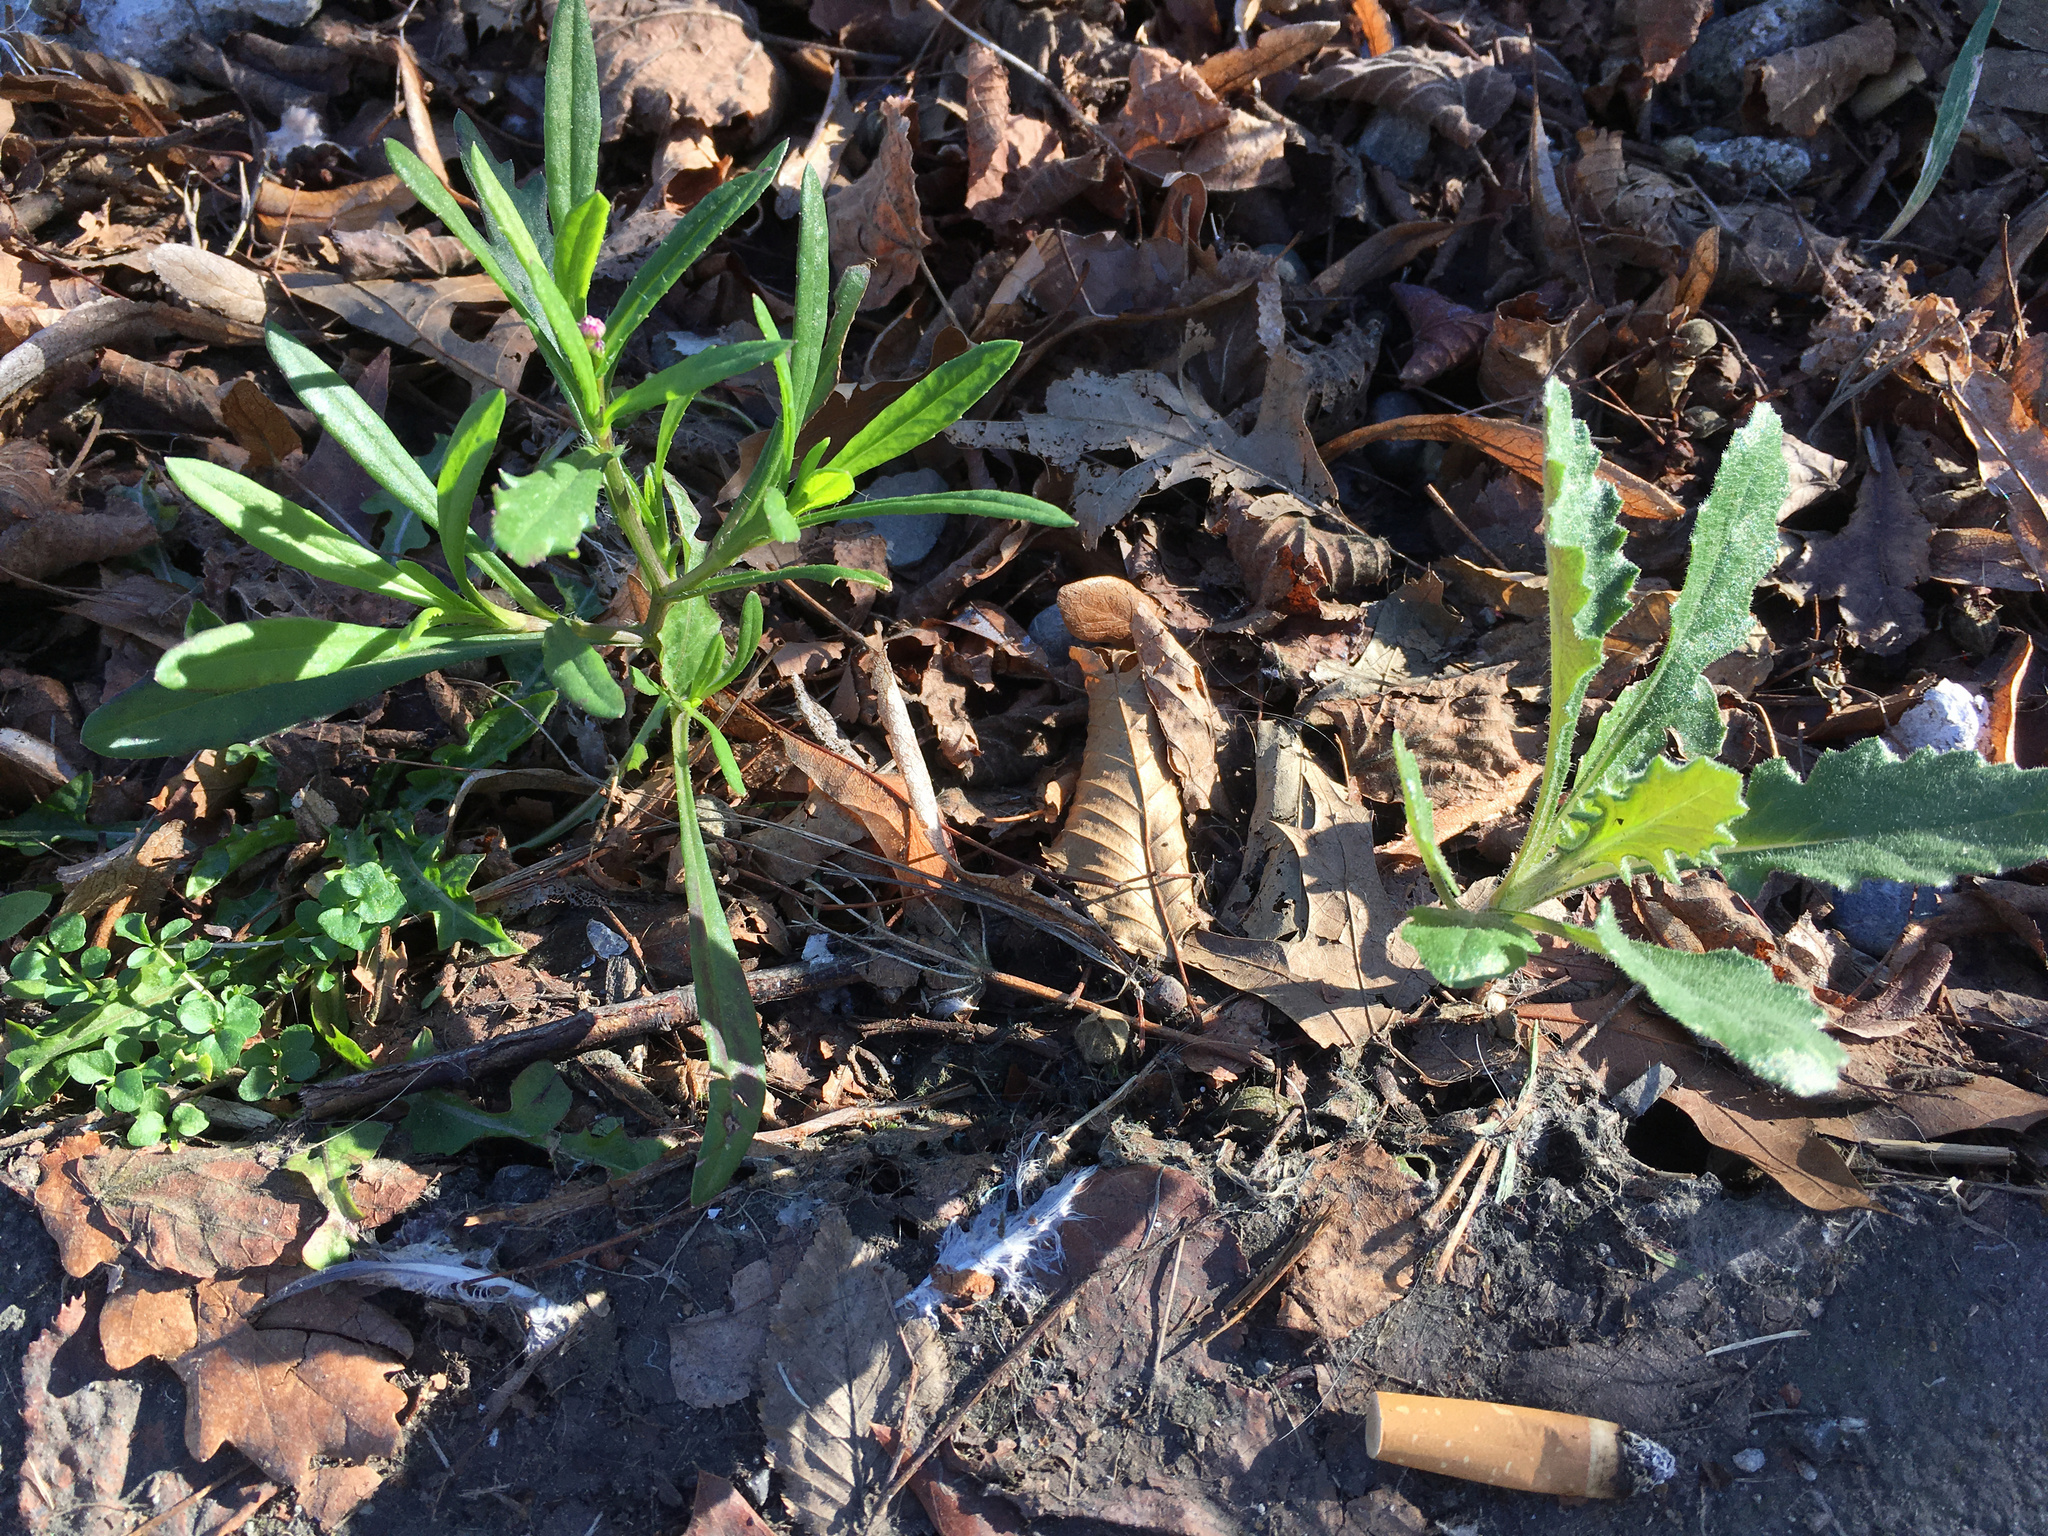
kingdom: Plantae
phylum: Tracheophyta
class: Magnoliopsida
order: Asterales
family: Asteraceae
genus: Senecio
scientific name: Senecio skirrhodon
